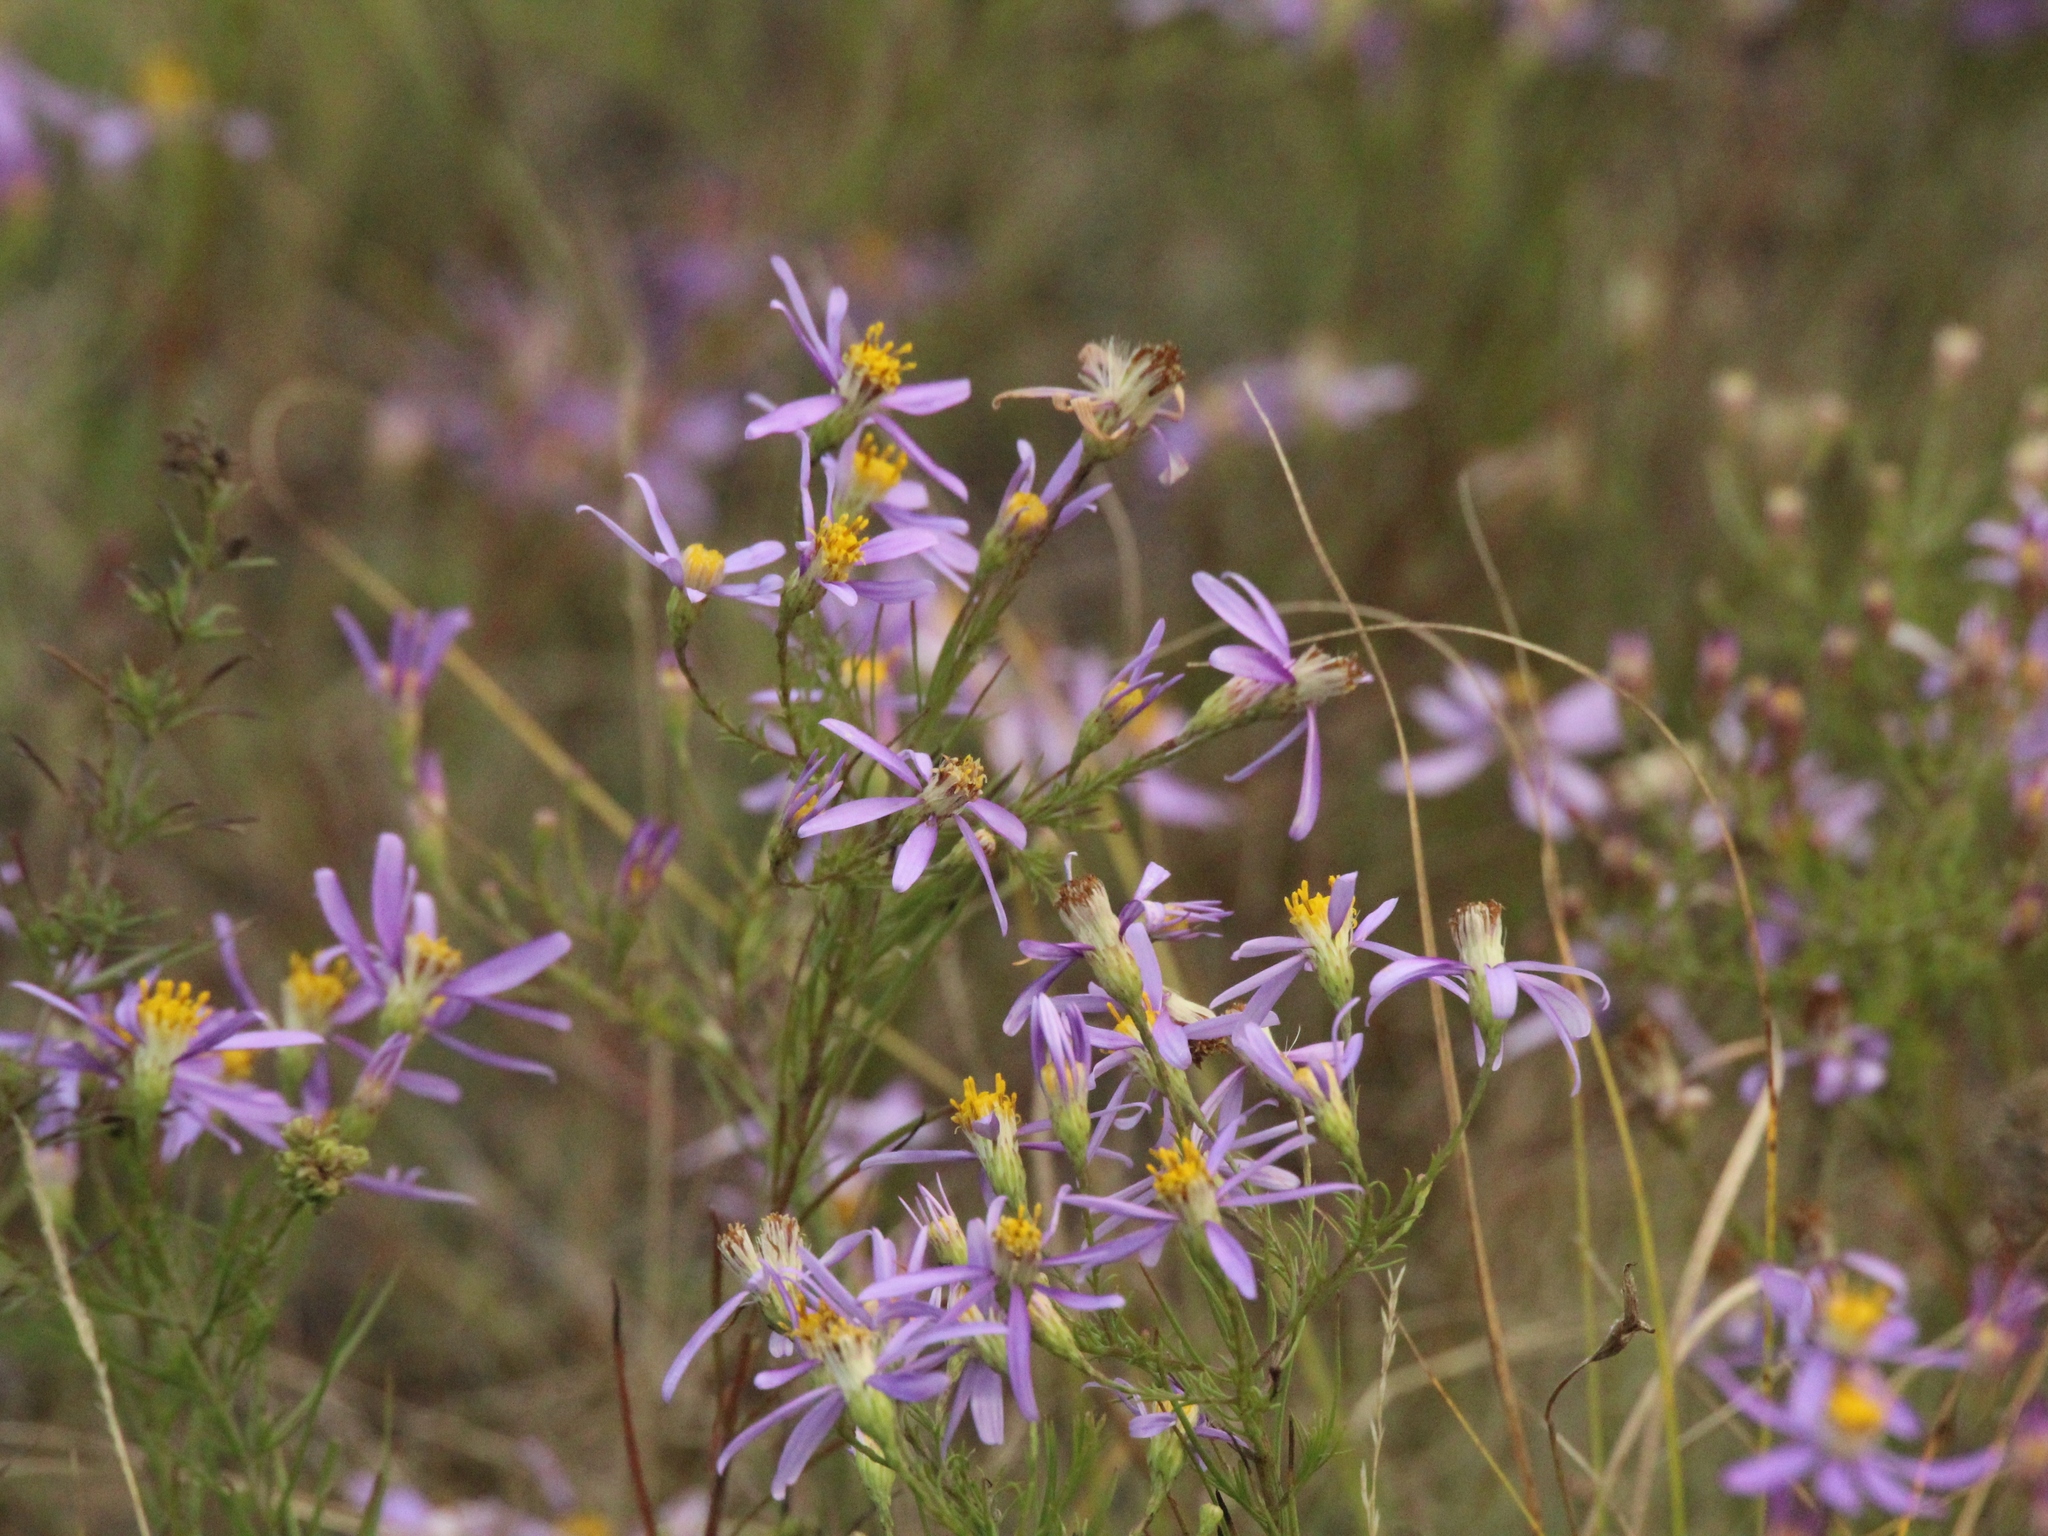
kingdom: Plantae
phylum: Tracheophyta
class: Magnoliopsida
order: Asterales
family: Asteraceae
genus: Galatella
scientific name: Galatella angustissima
